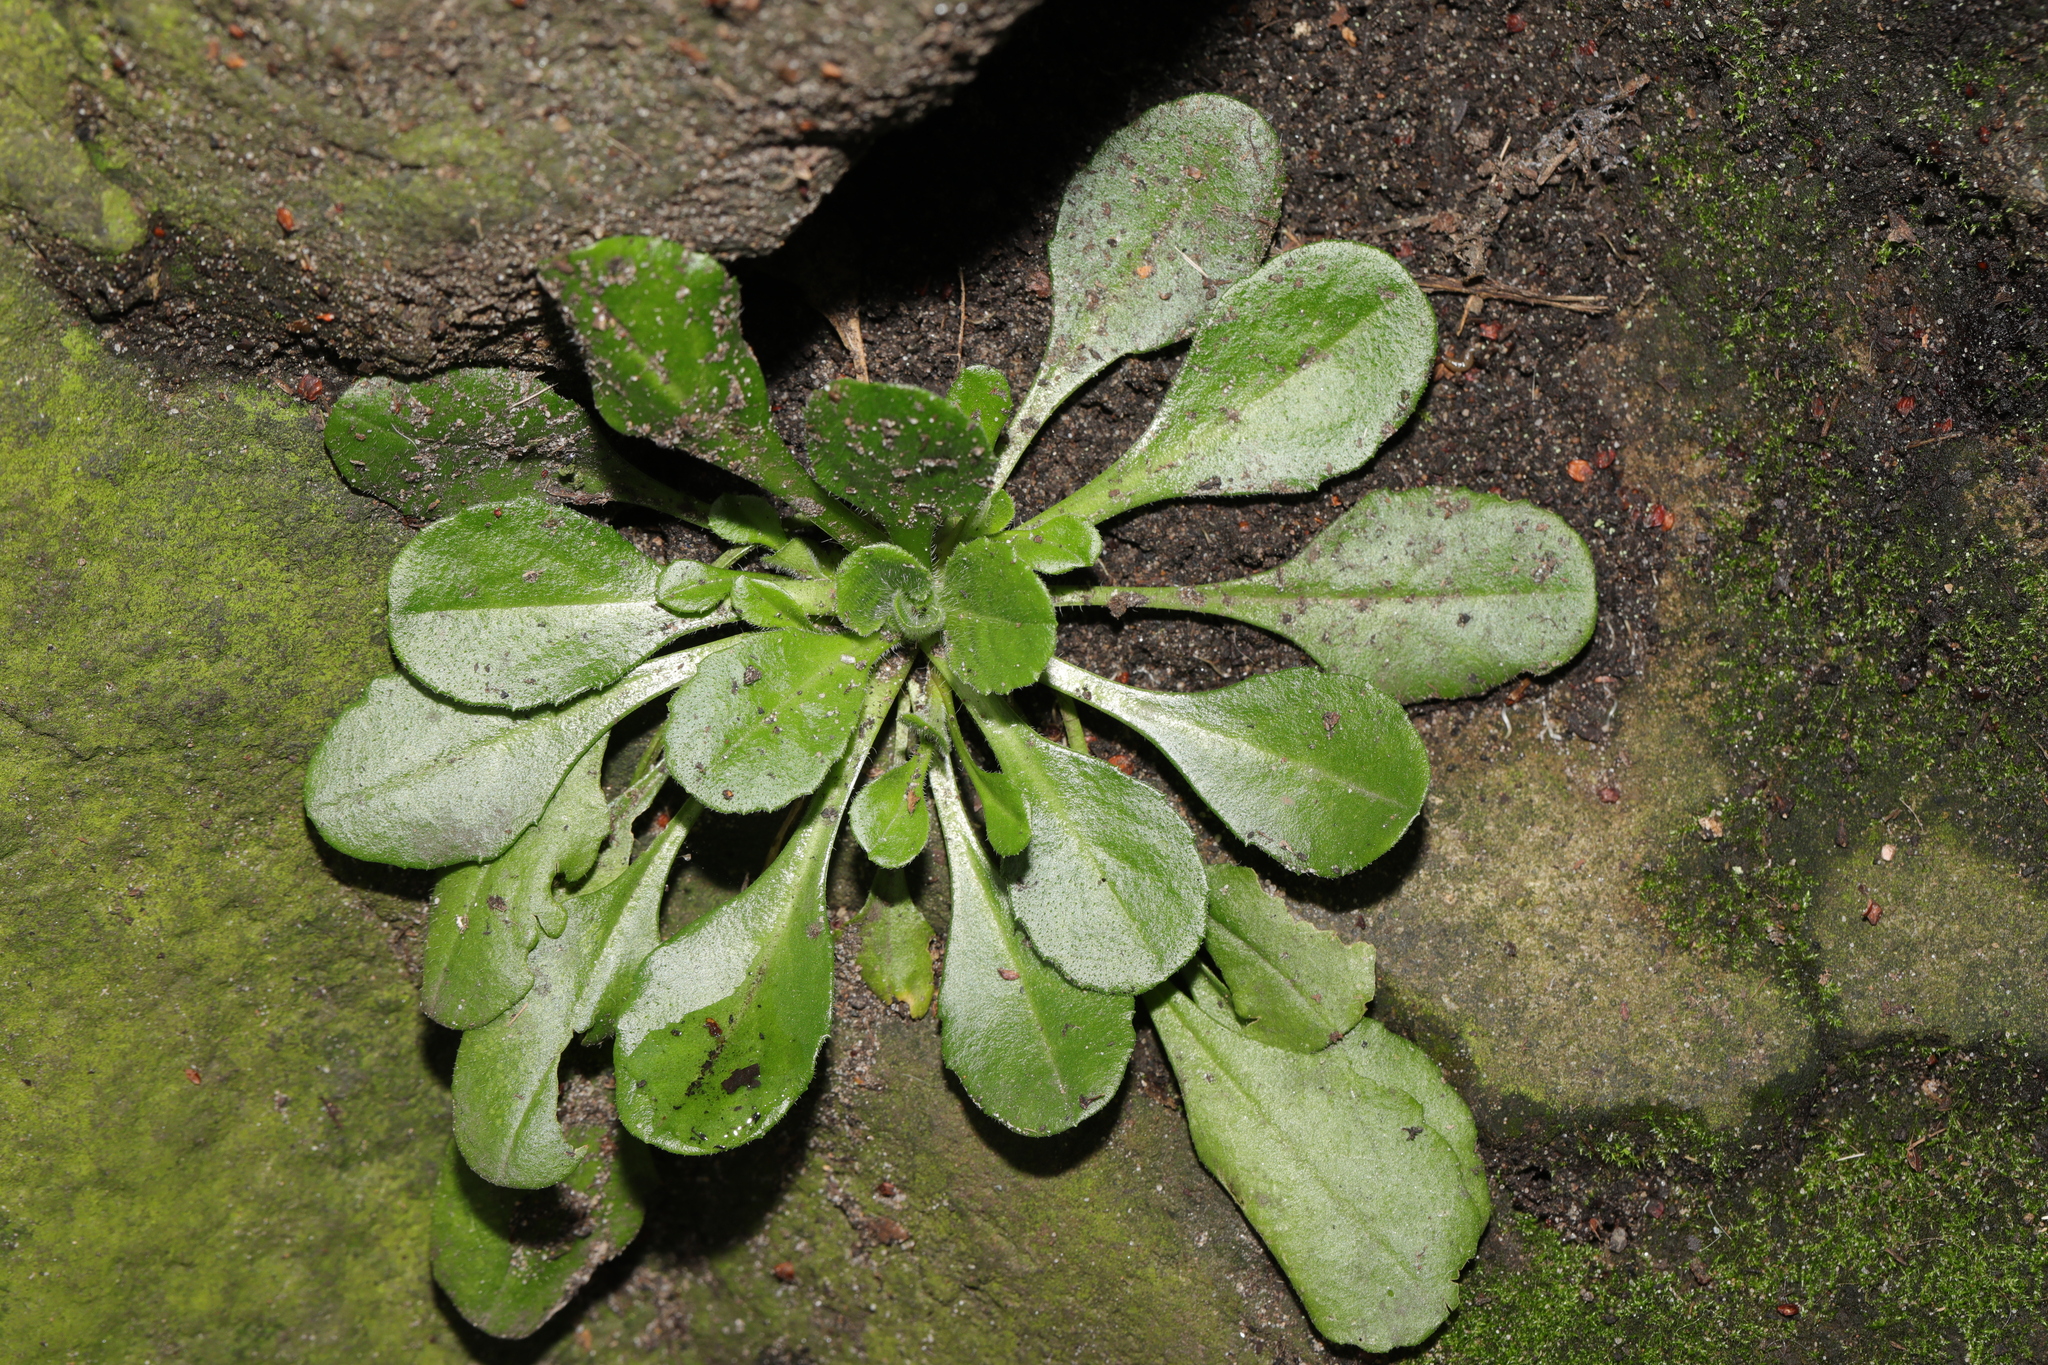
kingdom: Plantae
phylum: Tracheophyta
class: Magnoliopsida
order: Asterales
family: Asteraceae
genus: Bellis
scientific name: Bellis perennis
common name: Lawndaisy
